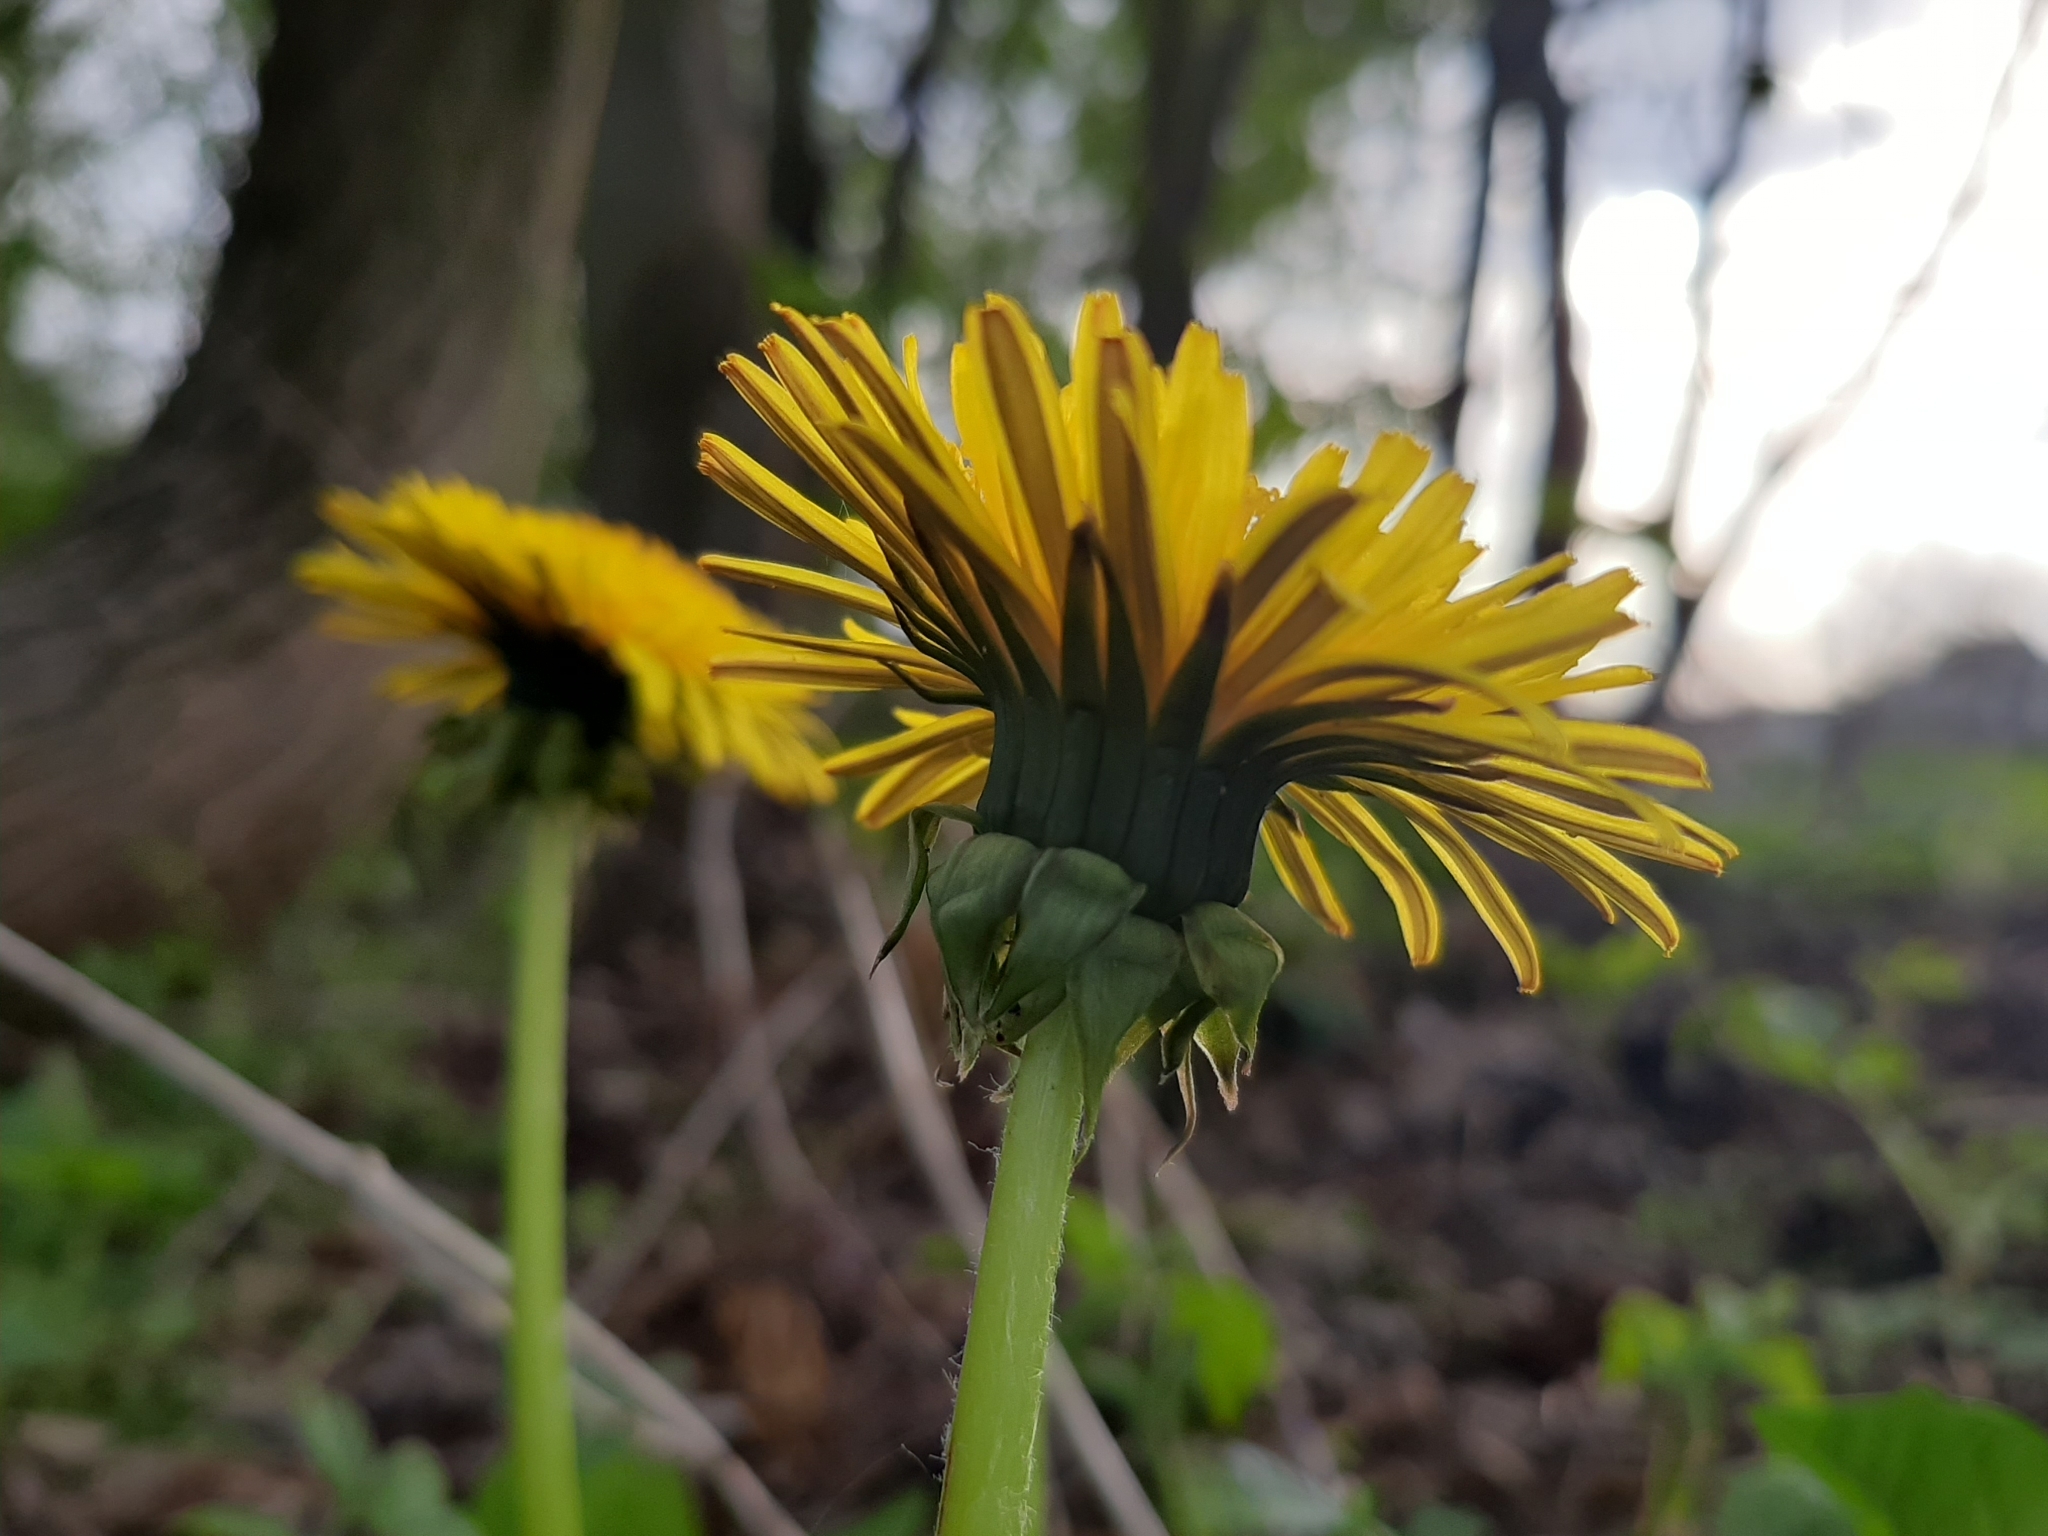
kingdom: Plantae
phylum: Tracheophyta
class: Magnoliopsida
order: Asterales
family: Asteraceae
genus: Taraxacum
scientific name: Taraxacum officinale
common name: Common dandelion
